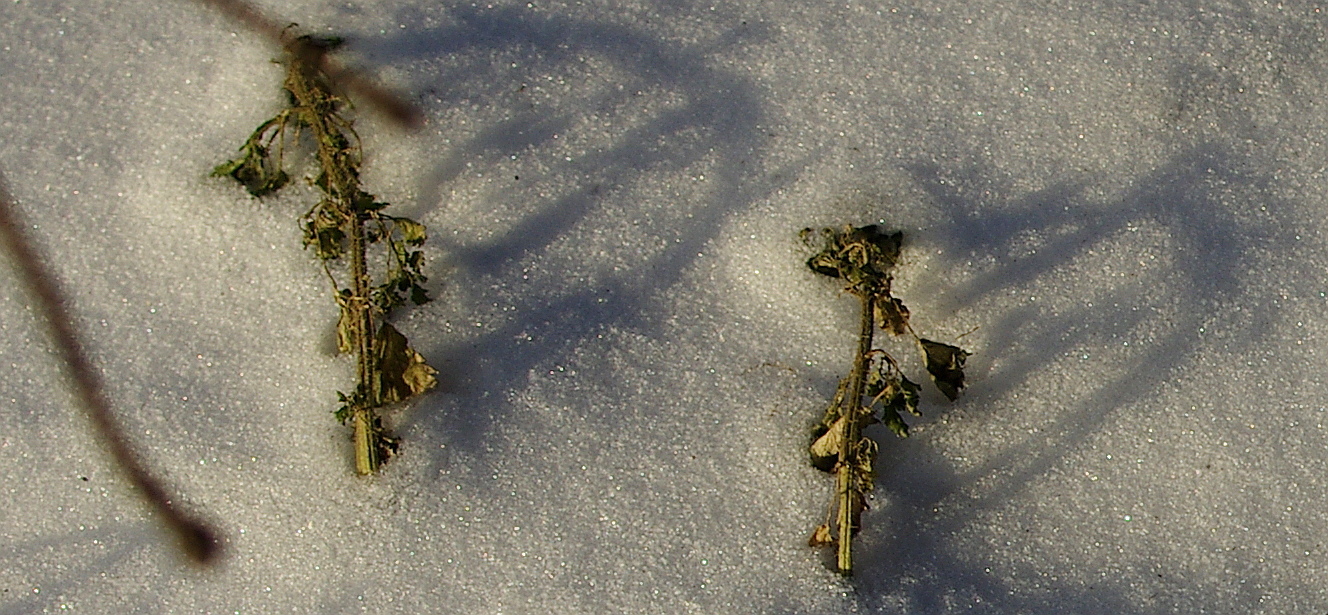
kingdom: Plantae
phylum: Tracheophyta
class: Magnoliopsida
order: Rosales
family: Urticaceae
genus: Urtica
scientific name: Urtica dioica
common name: Common nettle
